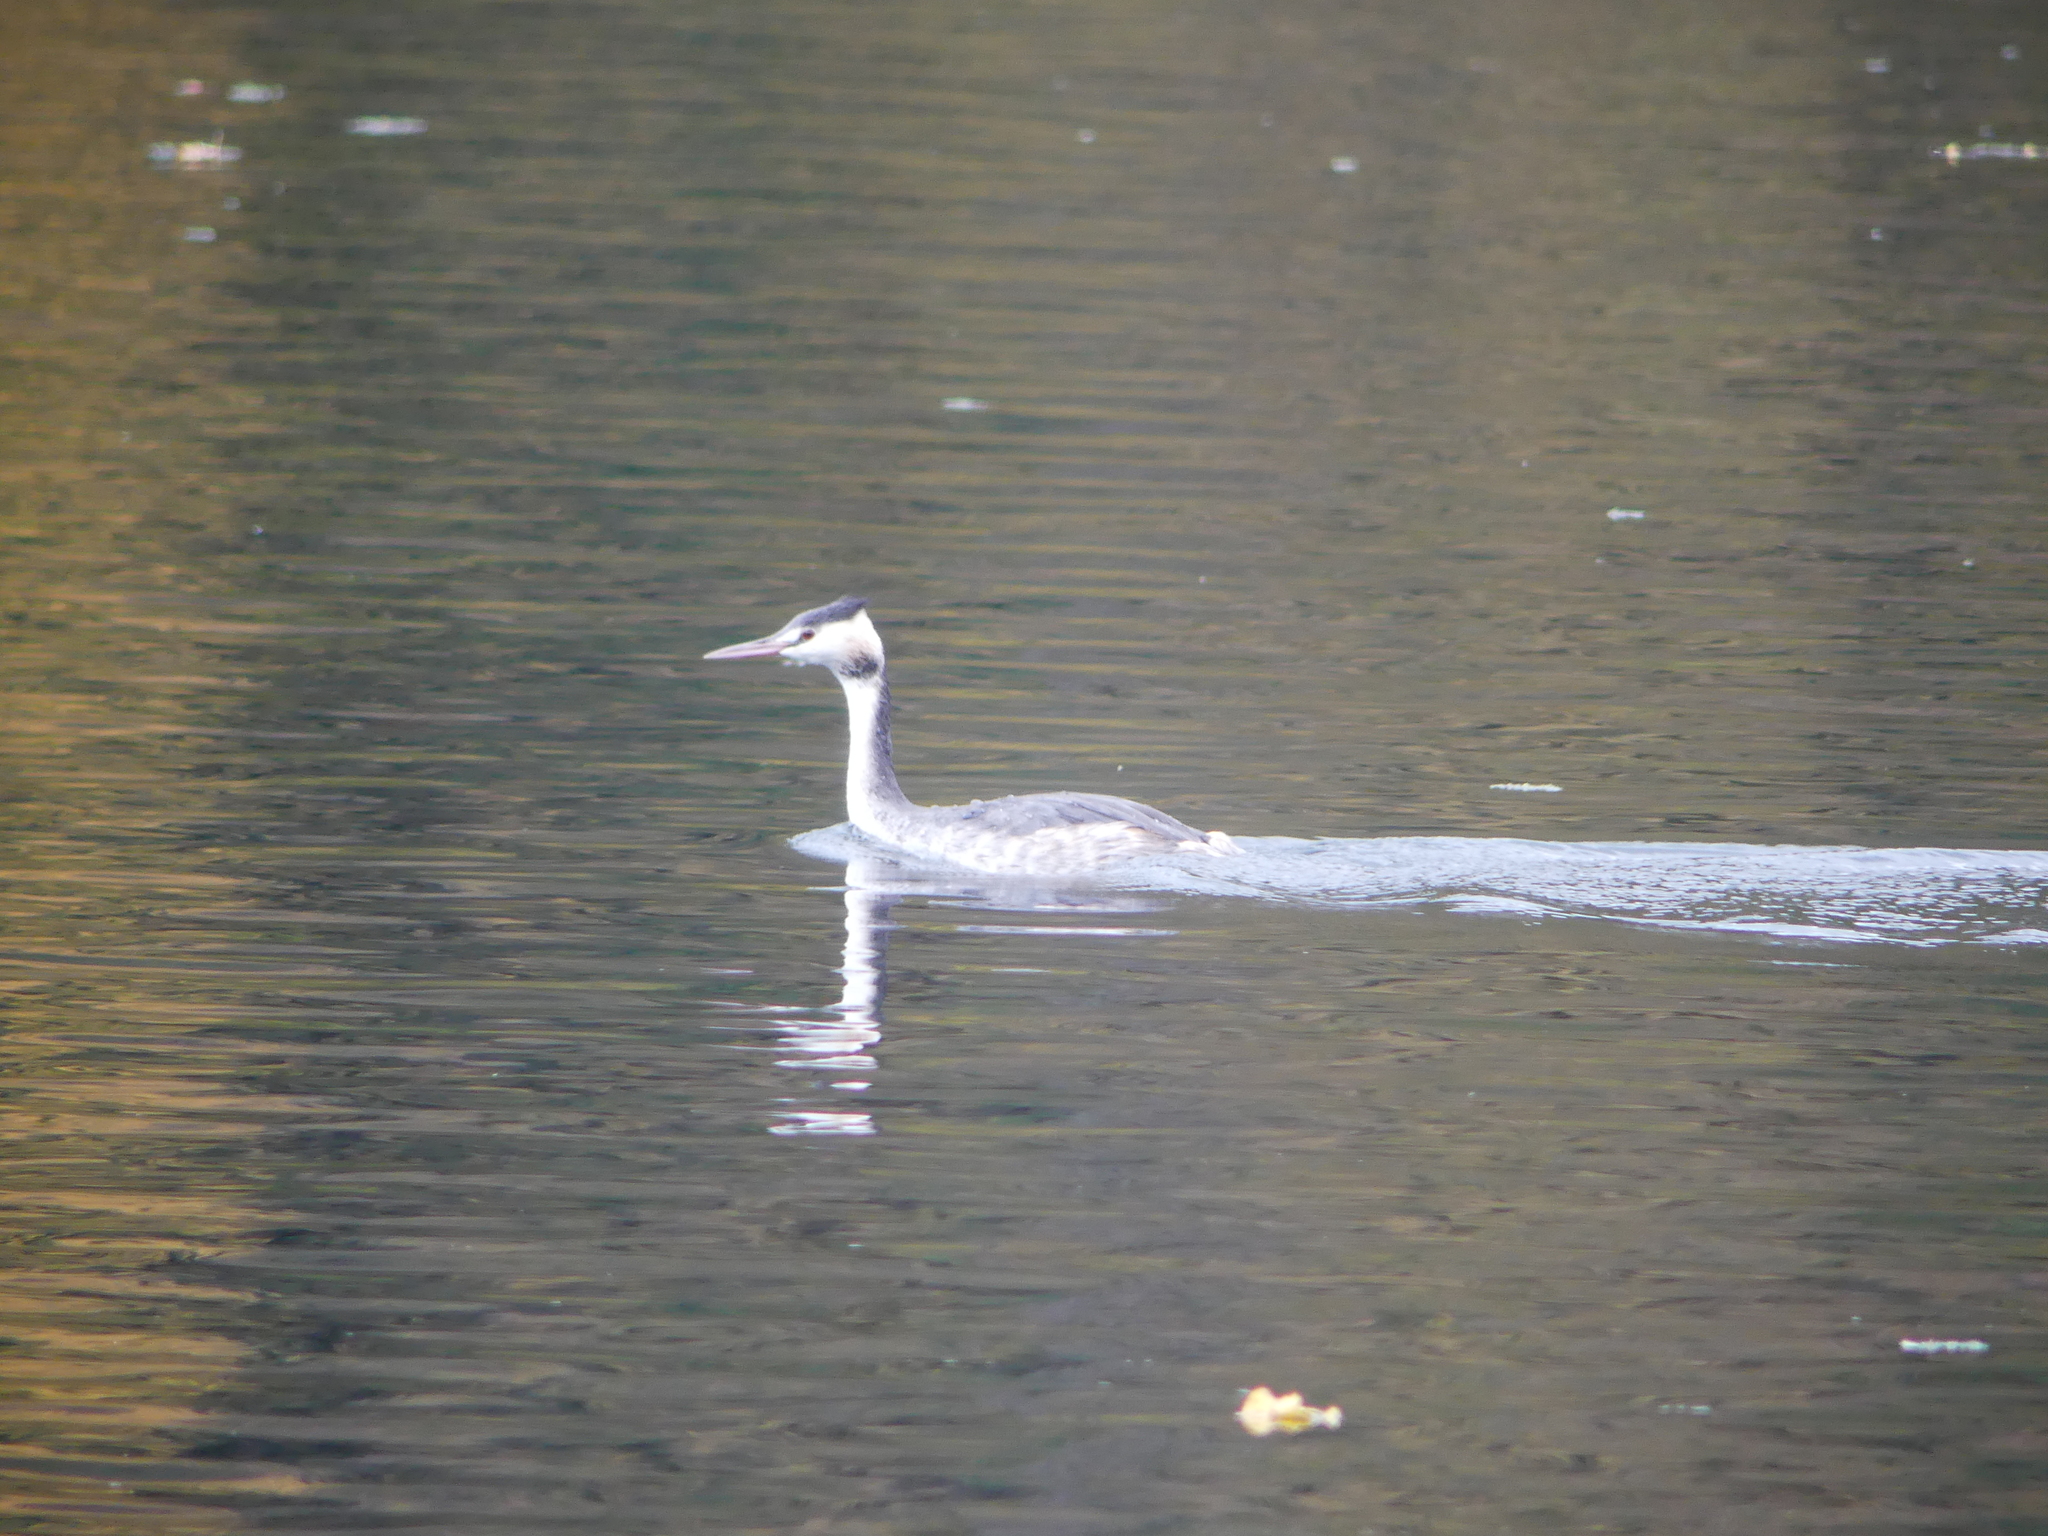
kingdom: Animalia
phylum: Chordata
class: Aves
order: Podicipediformes
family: Podicipedidae
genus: Podiceps
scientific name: Podiceps cristatus
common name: Great crested grebe
